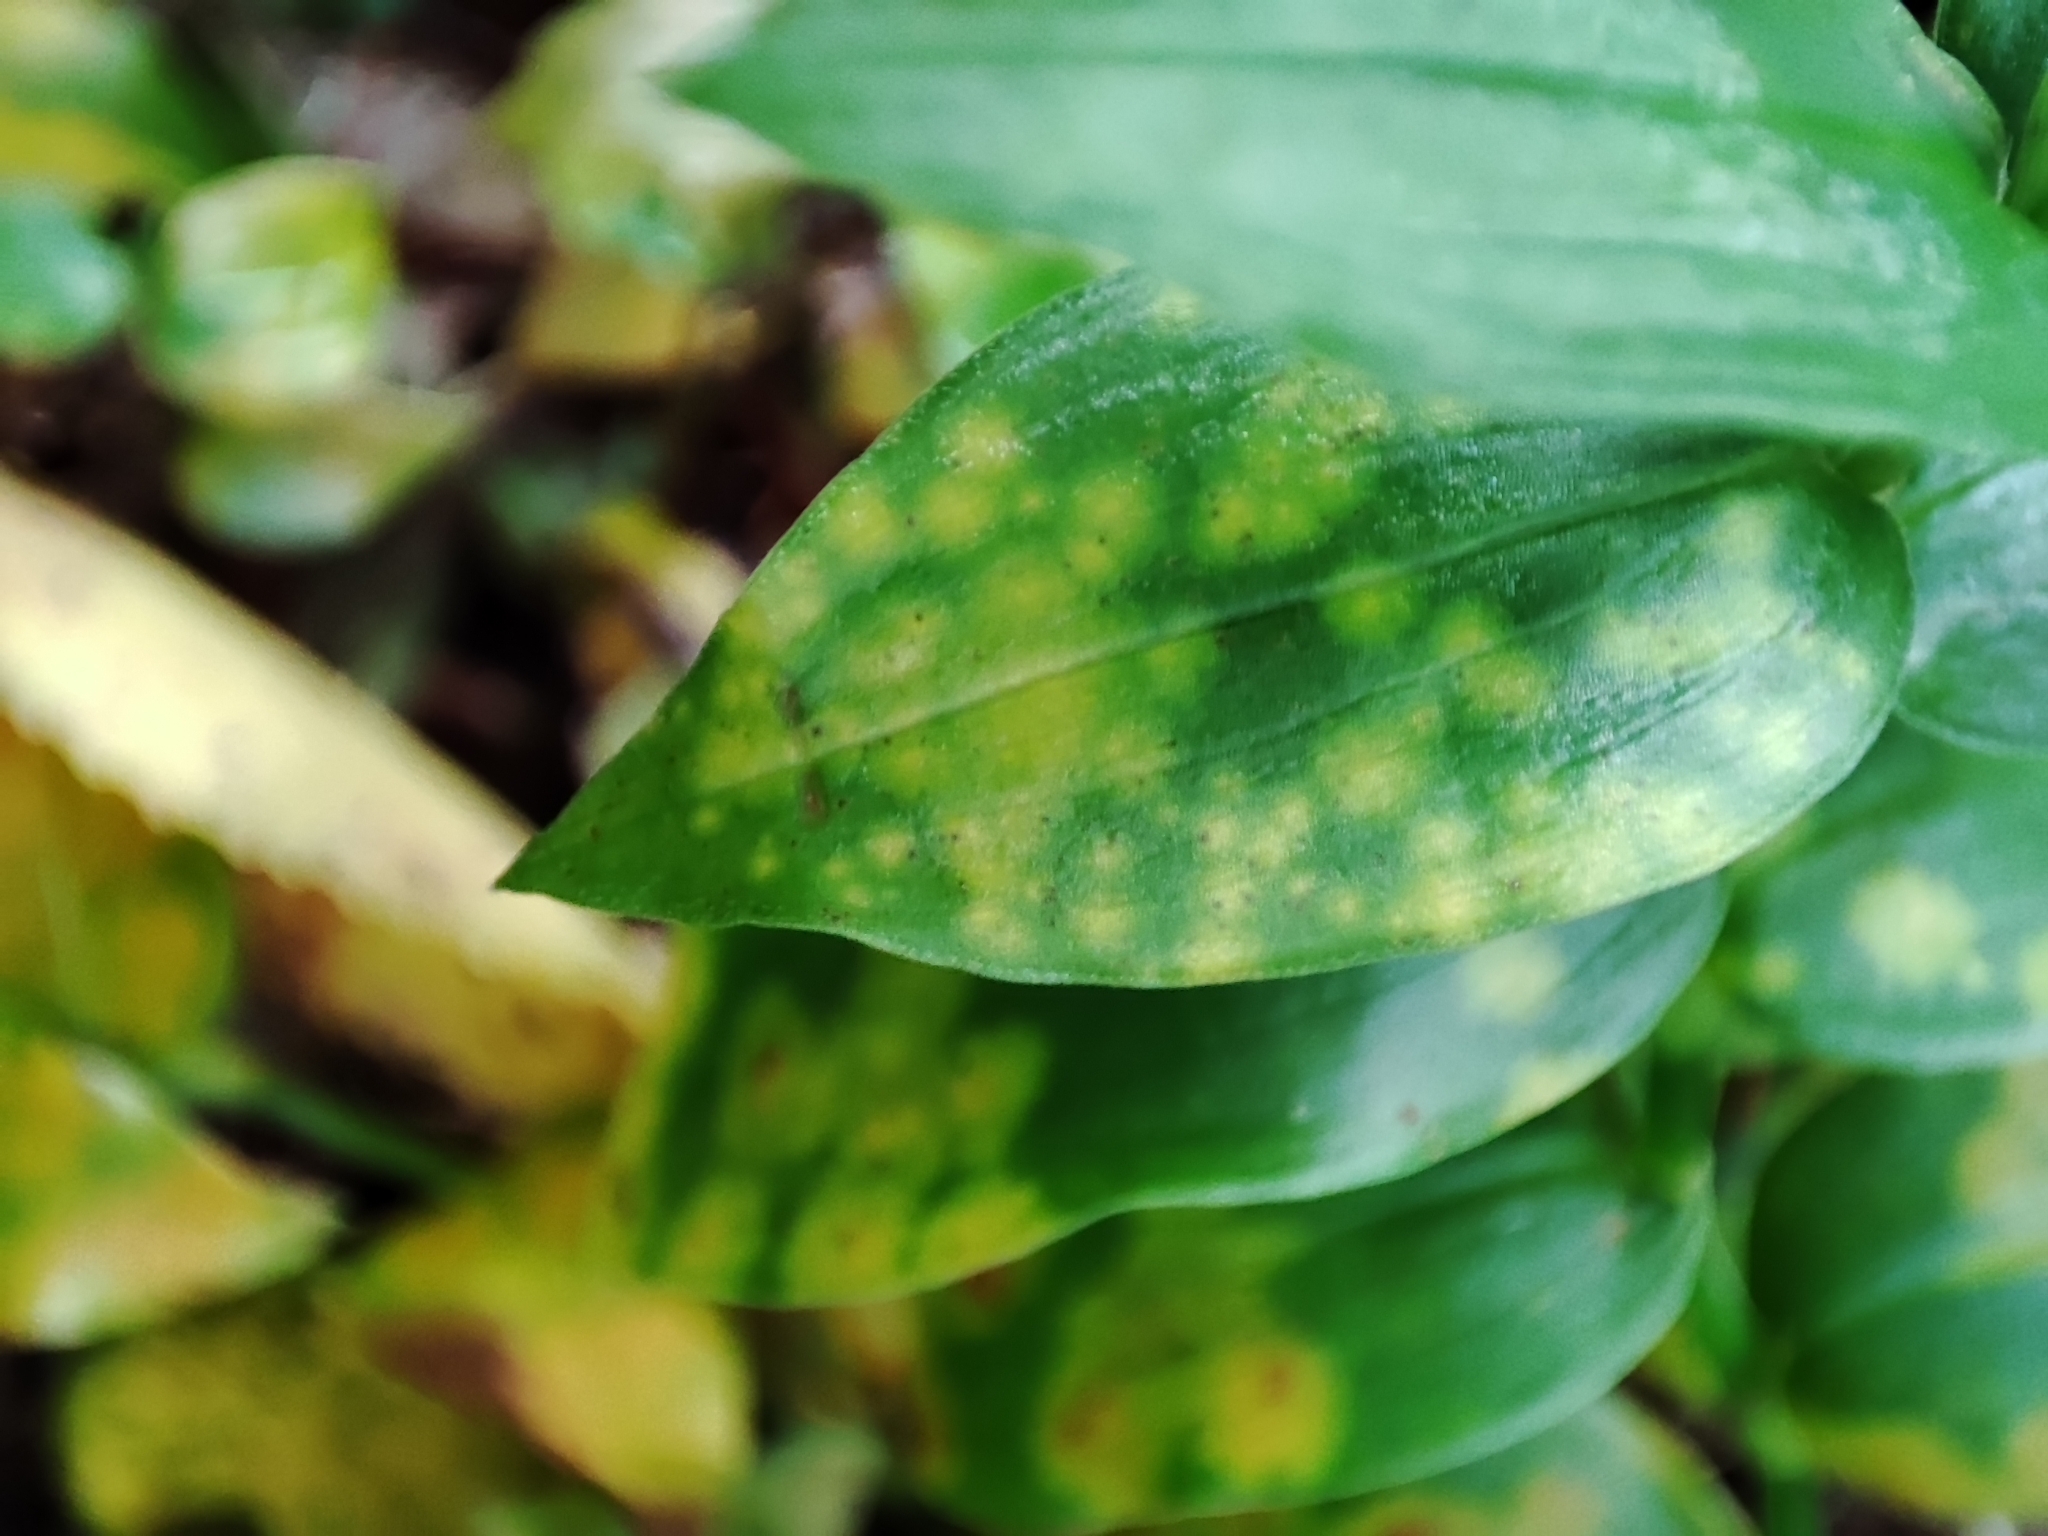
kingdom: Fungi
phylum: Basidiomycota
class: Exobasidiomycetes
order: Exobasidiales
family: Brachybasidiaceae
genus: Kordyana
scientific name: Kordyana brasiliensis
